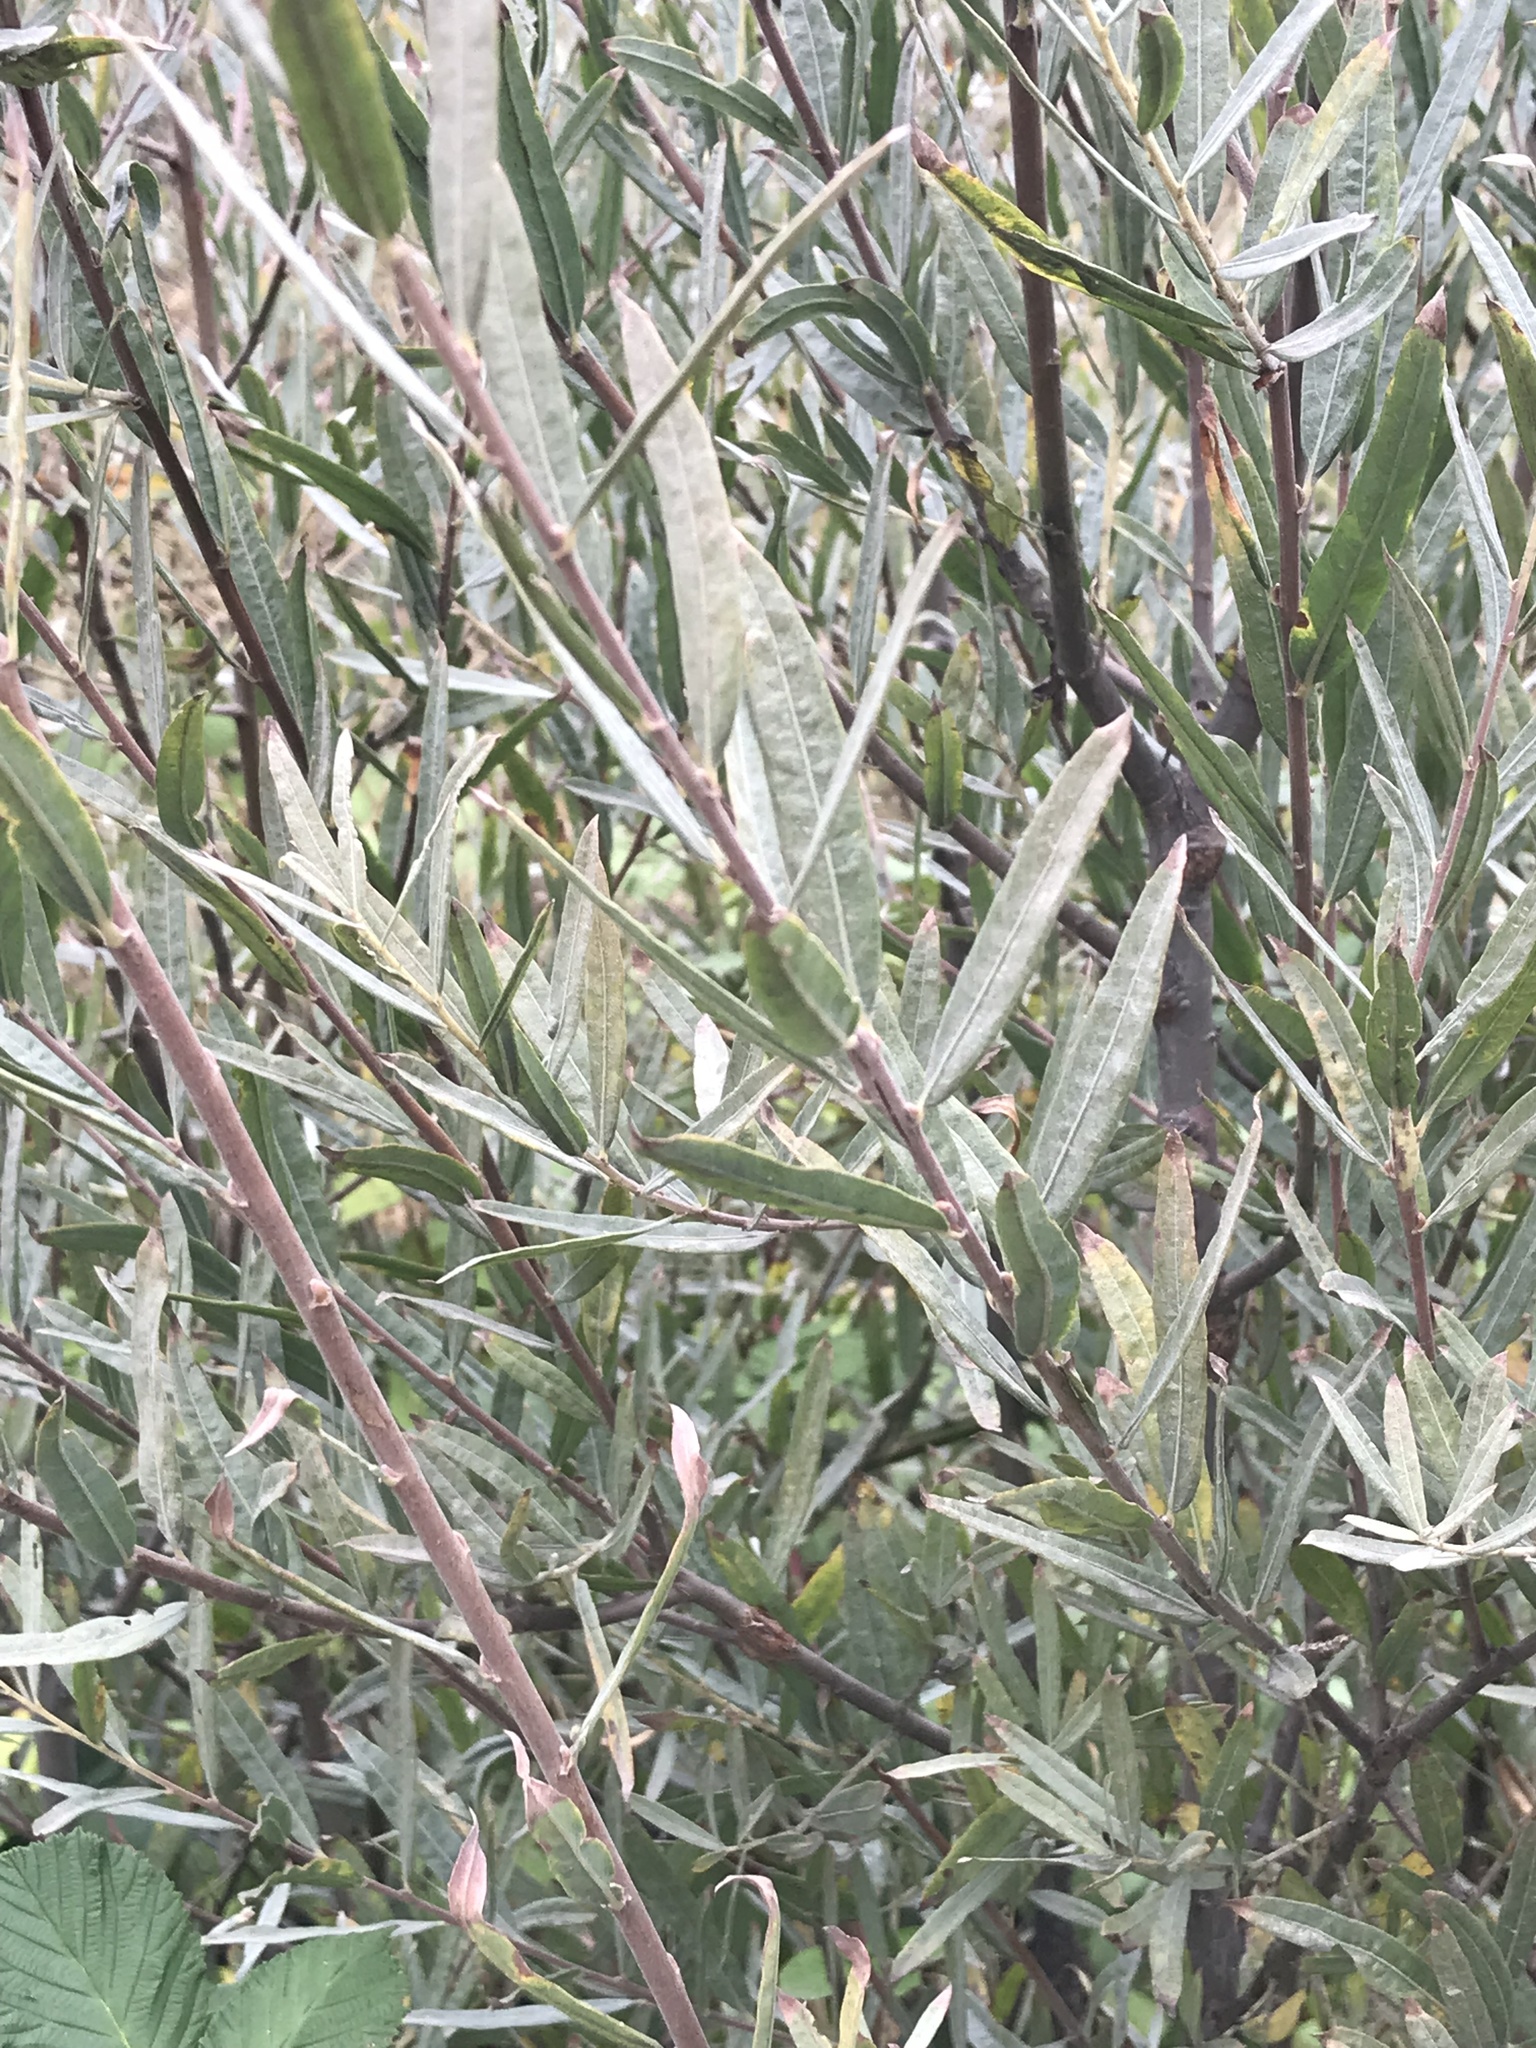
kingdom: Plantae
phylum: Tracheophyta
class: Magnoliopsida
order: Malpighiales
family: Salicaceae
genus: Salix
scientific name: Salix exigua
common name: Coyote willow
